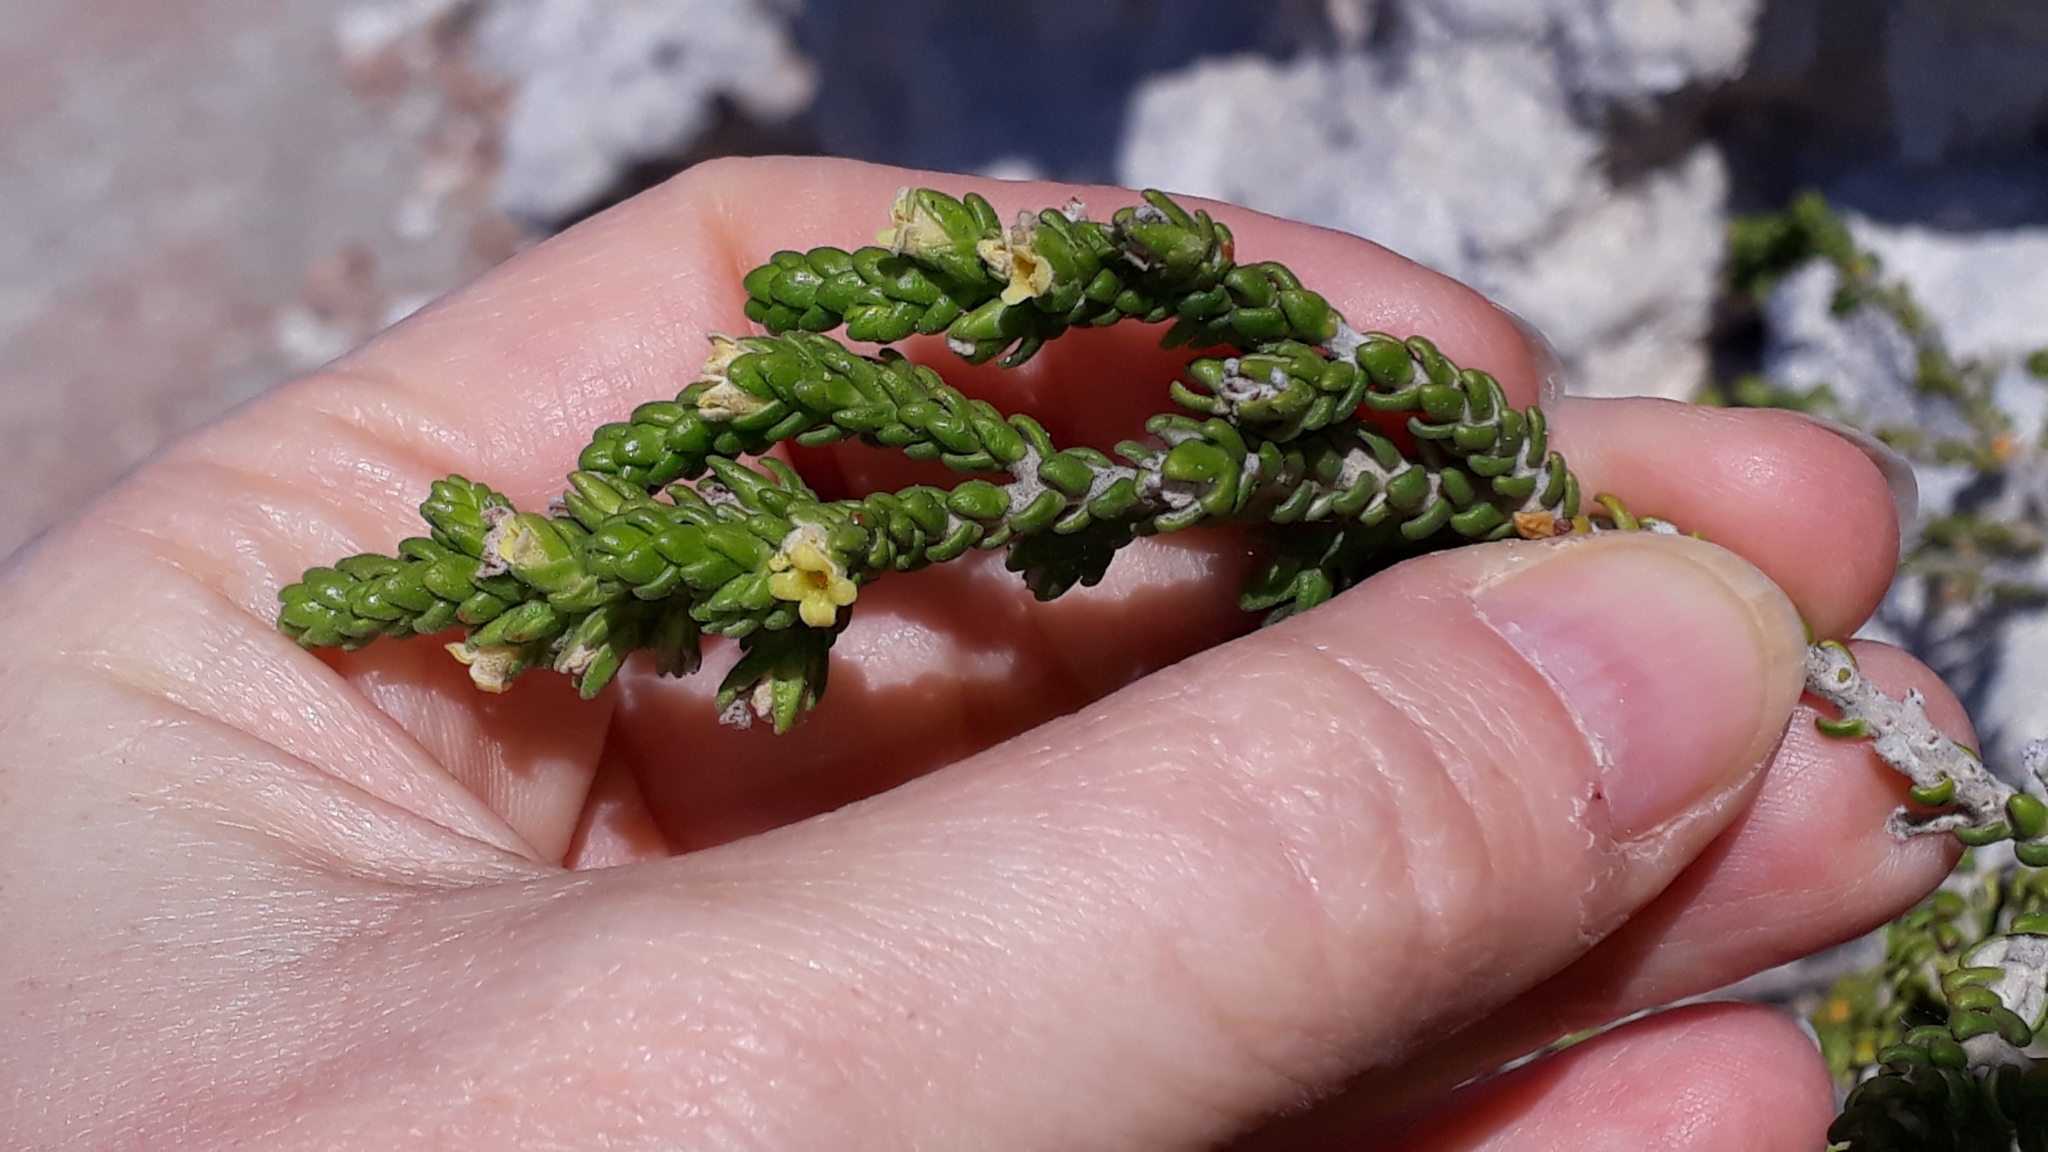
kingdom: Plantae
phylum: Tracheophyta
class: Magnoliopsida
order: Malvales
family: Thymelaeaceae
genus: Thymelaea
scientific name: Thymelaea hirsuta
